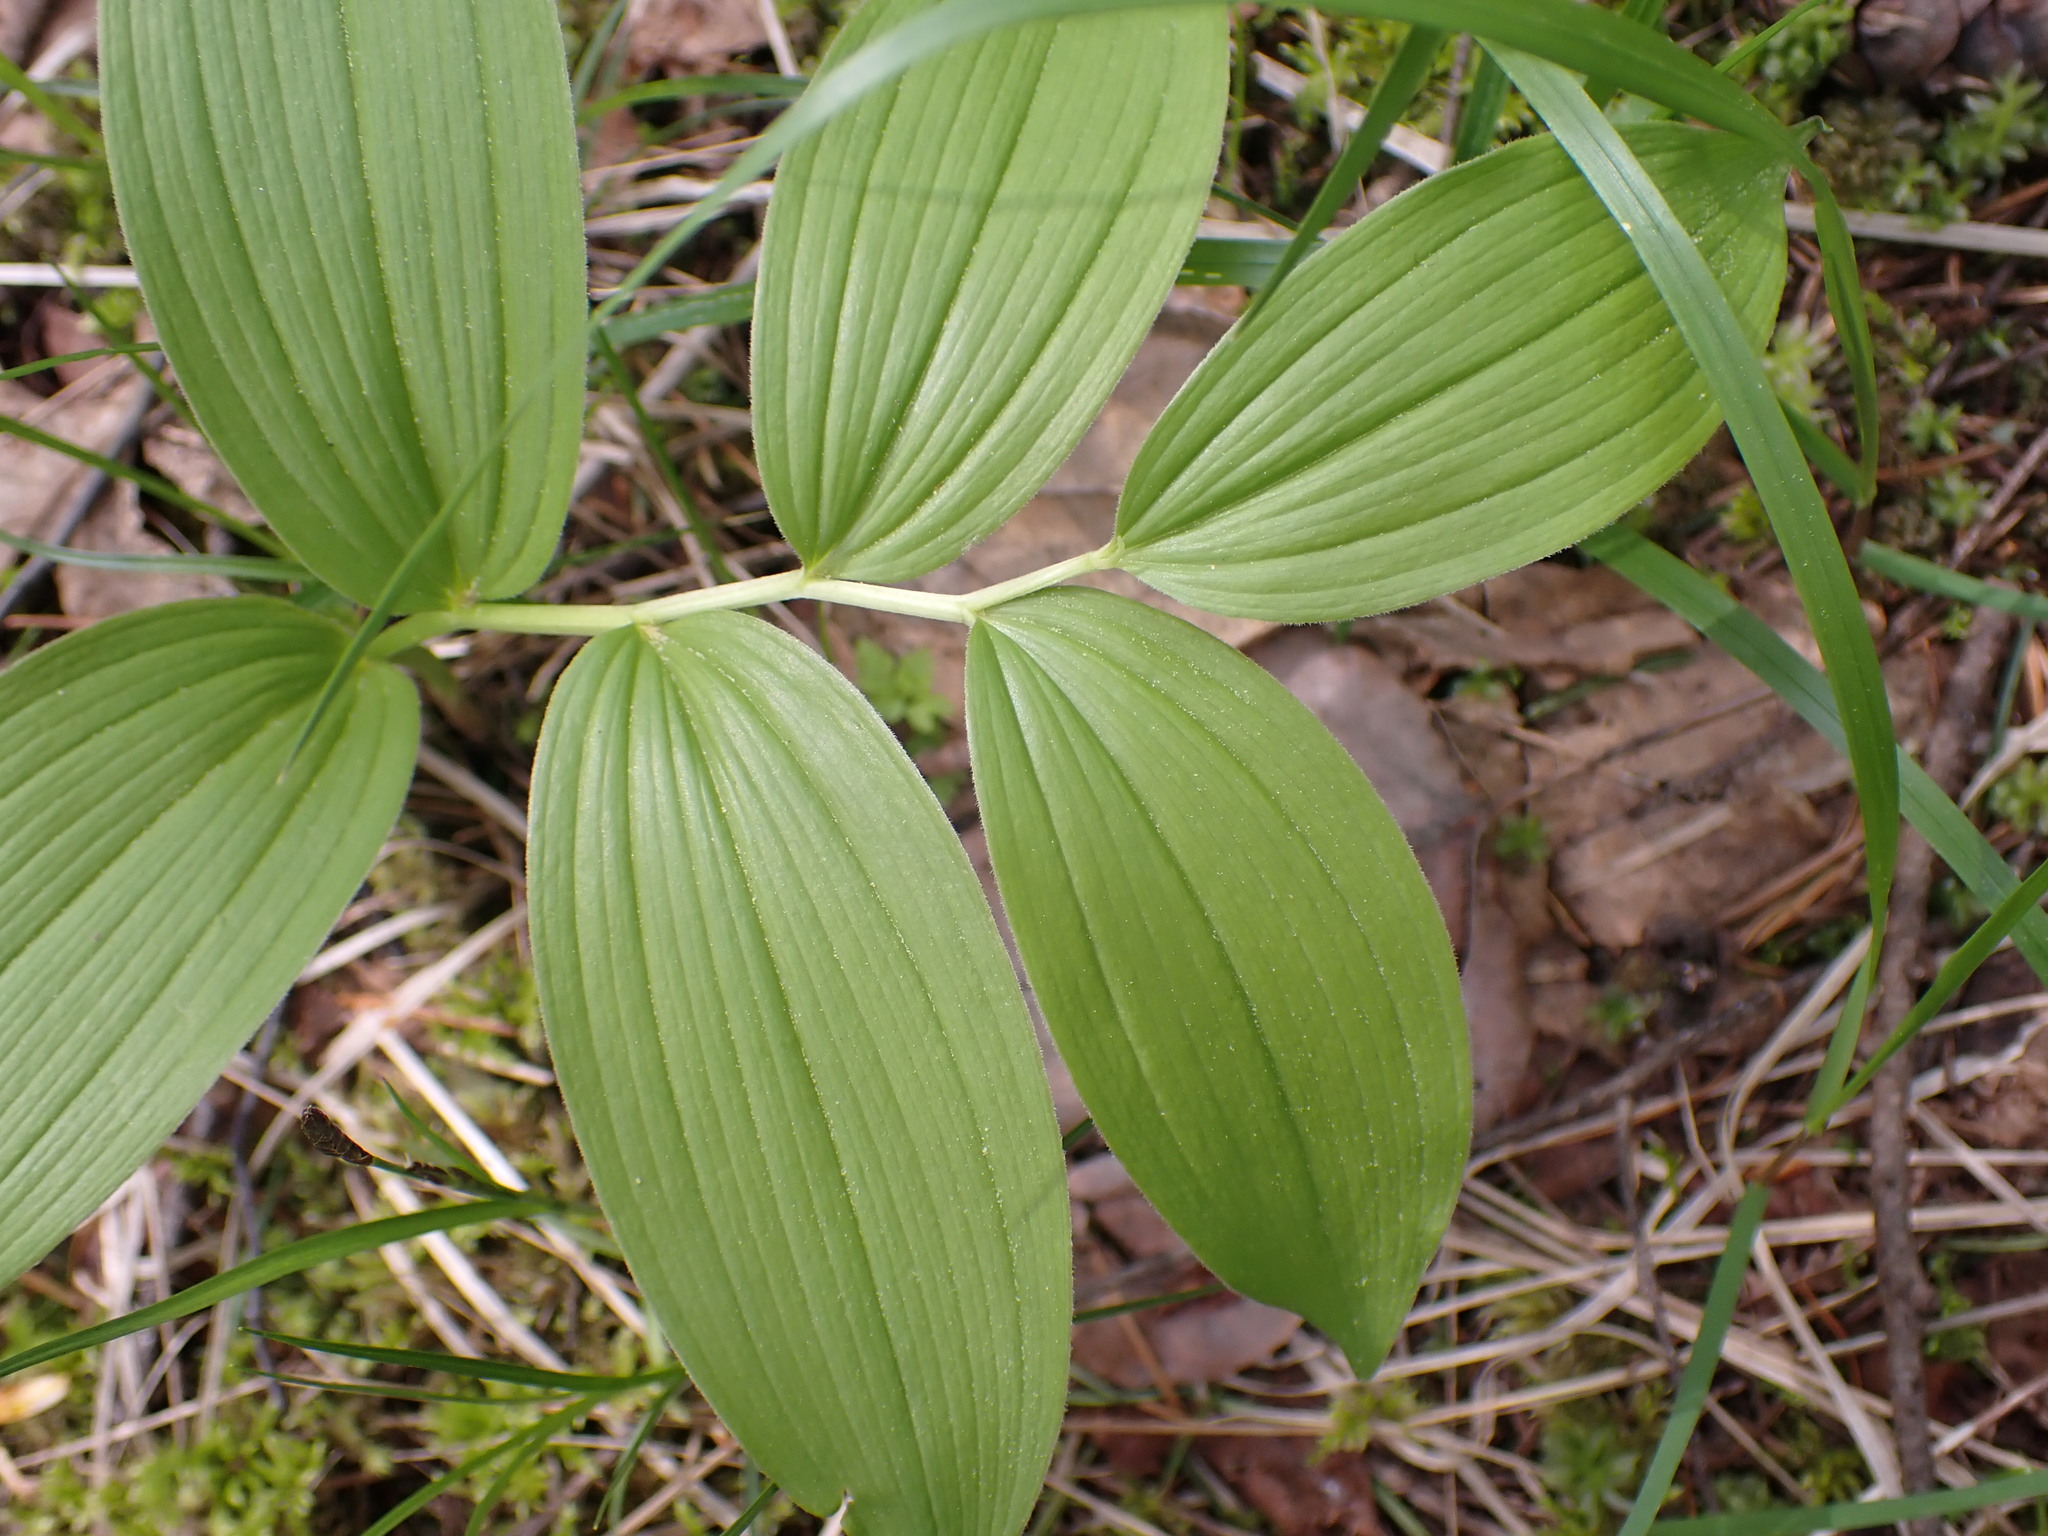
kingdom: Plantae
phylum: Tracheophyta
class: Liliopsida
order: Asparagales
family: Asparagaceae
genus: Maianthemum
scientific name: Maianthemum racemosum
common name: False spikenard
